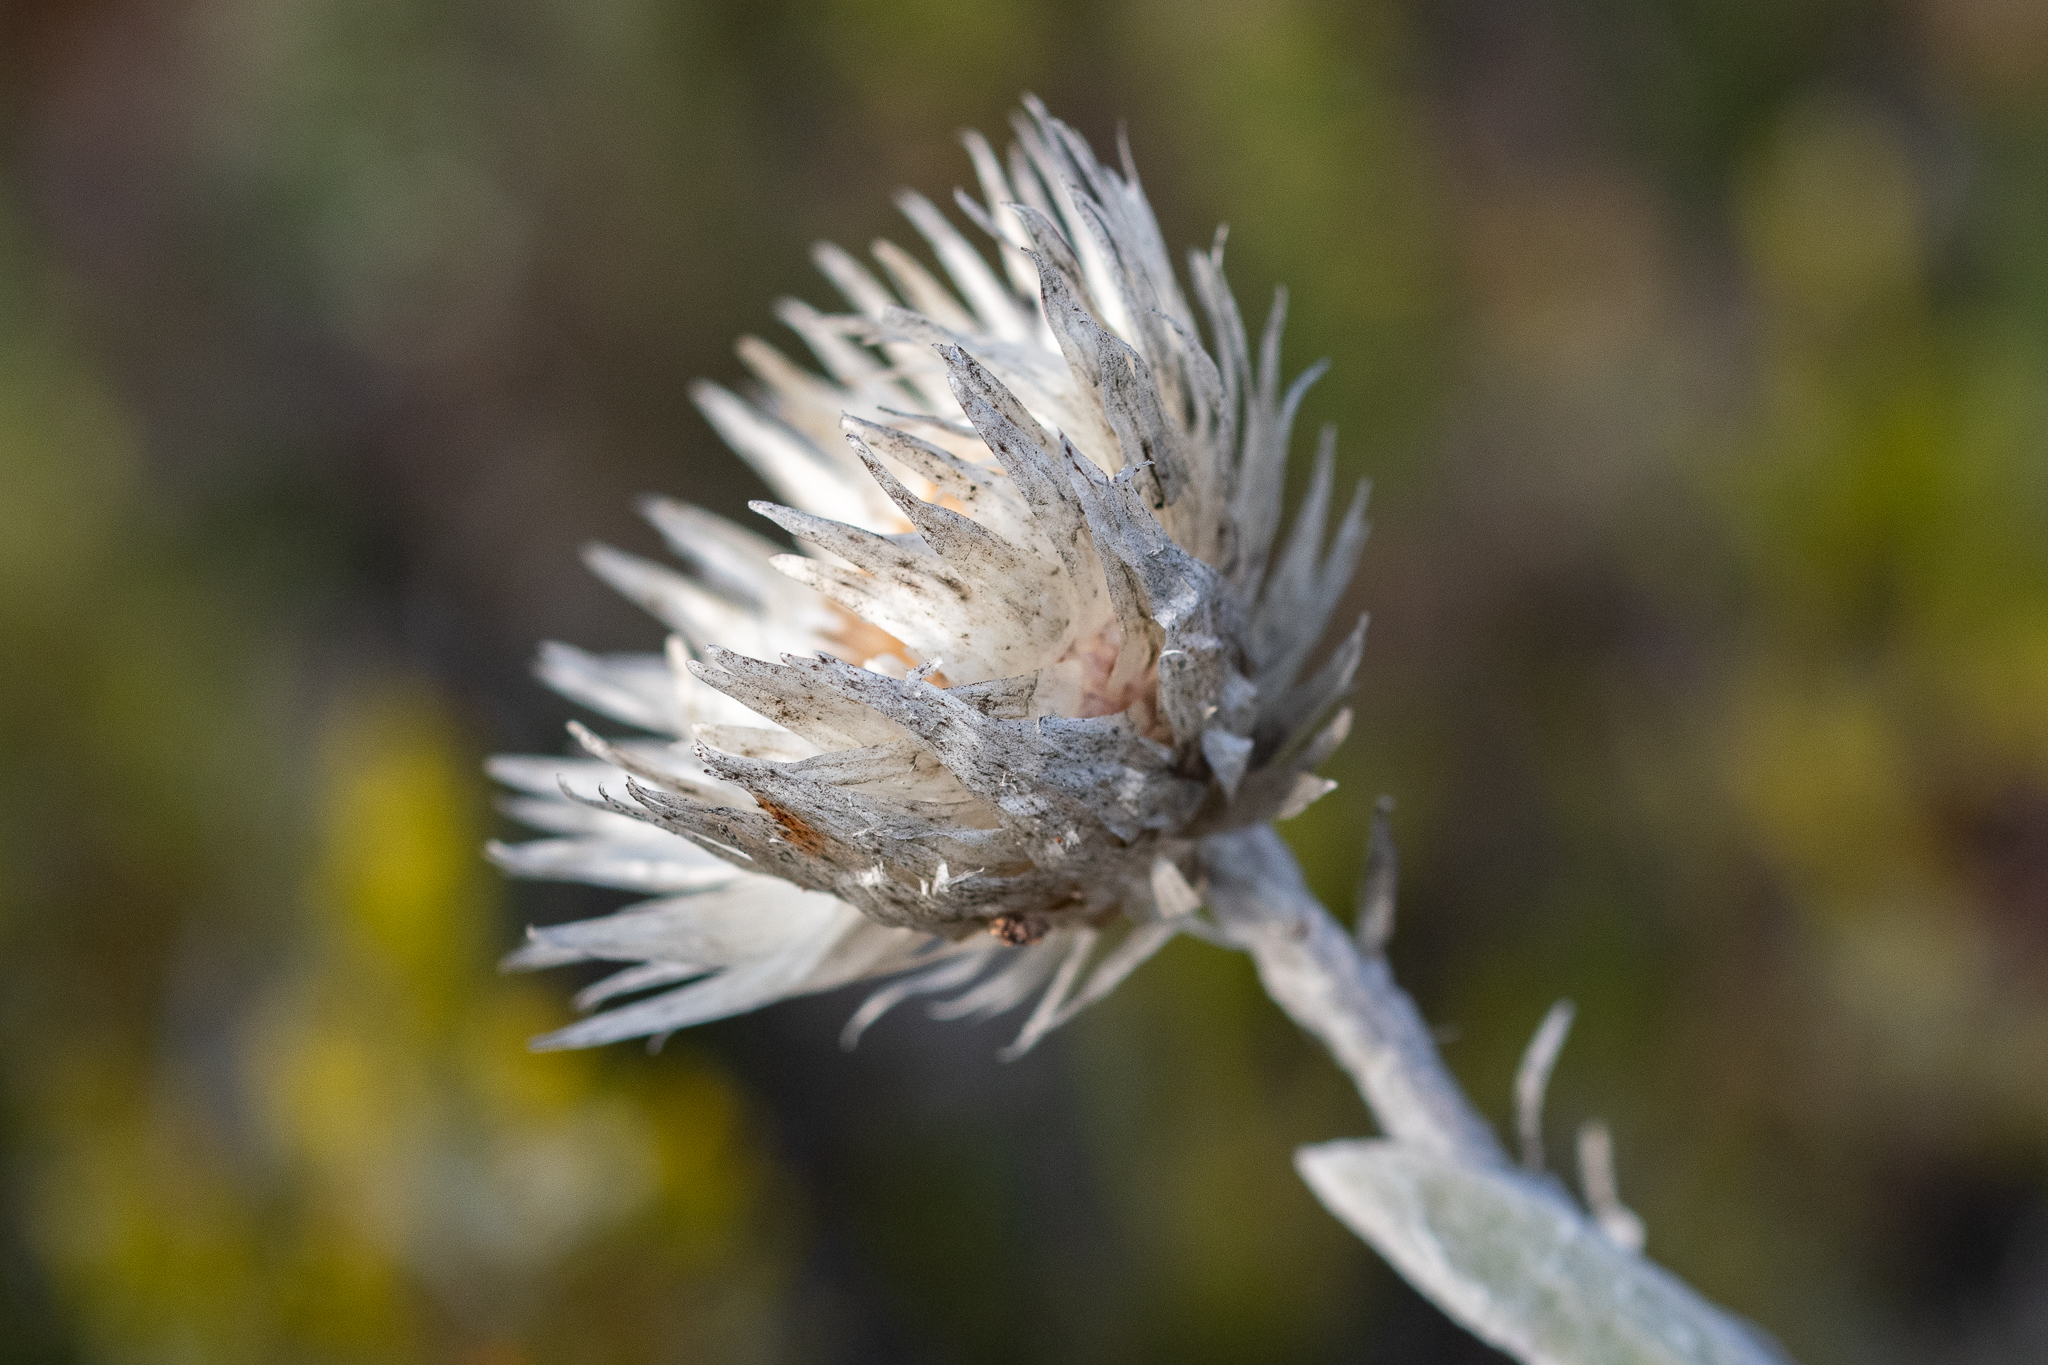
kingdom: Plantae
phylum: Tracheophyta
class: Magnoliopsida
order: Asterales
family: Asteraceae
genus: Syncarpha
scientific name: Syncarpha vestita
